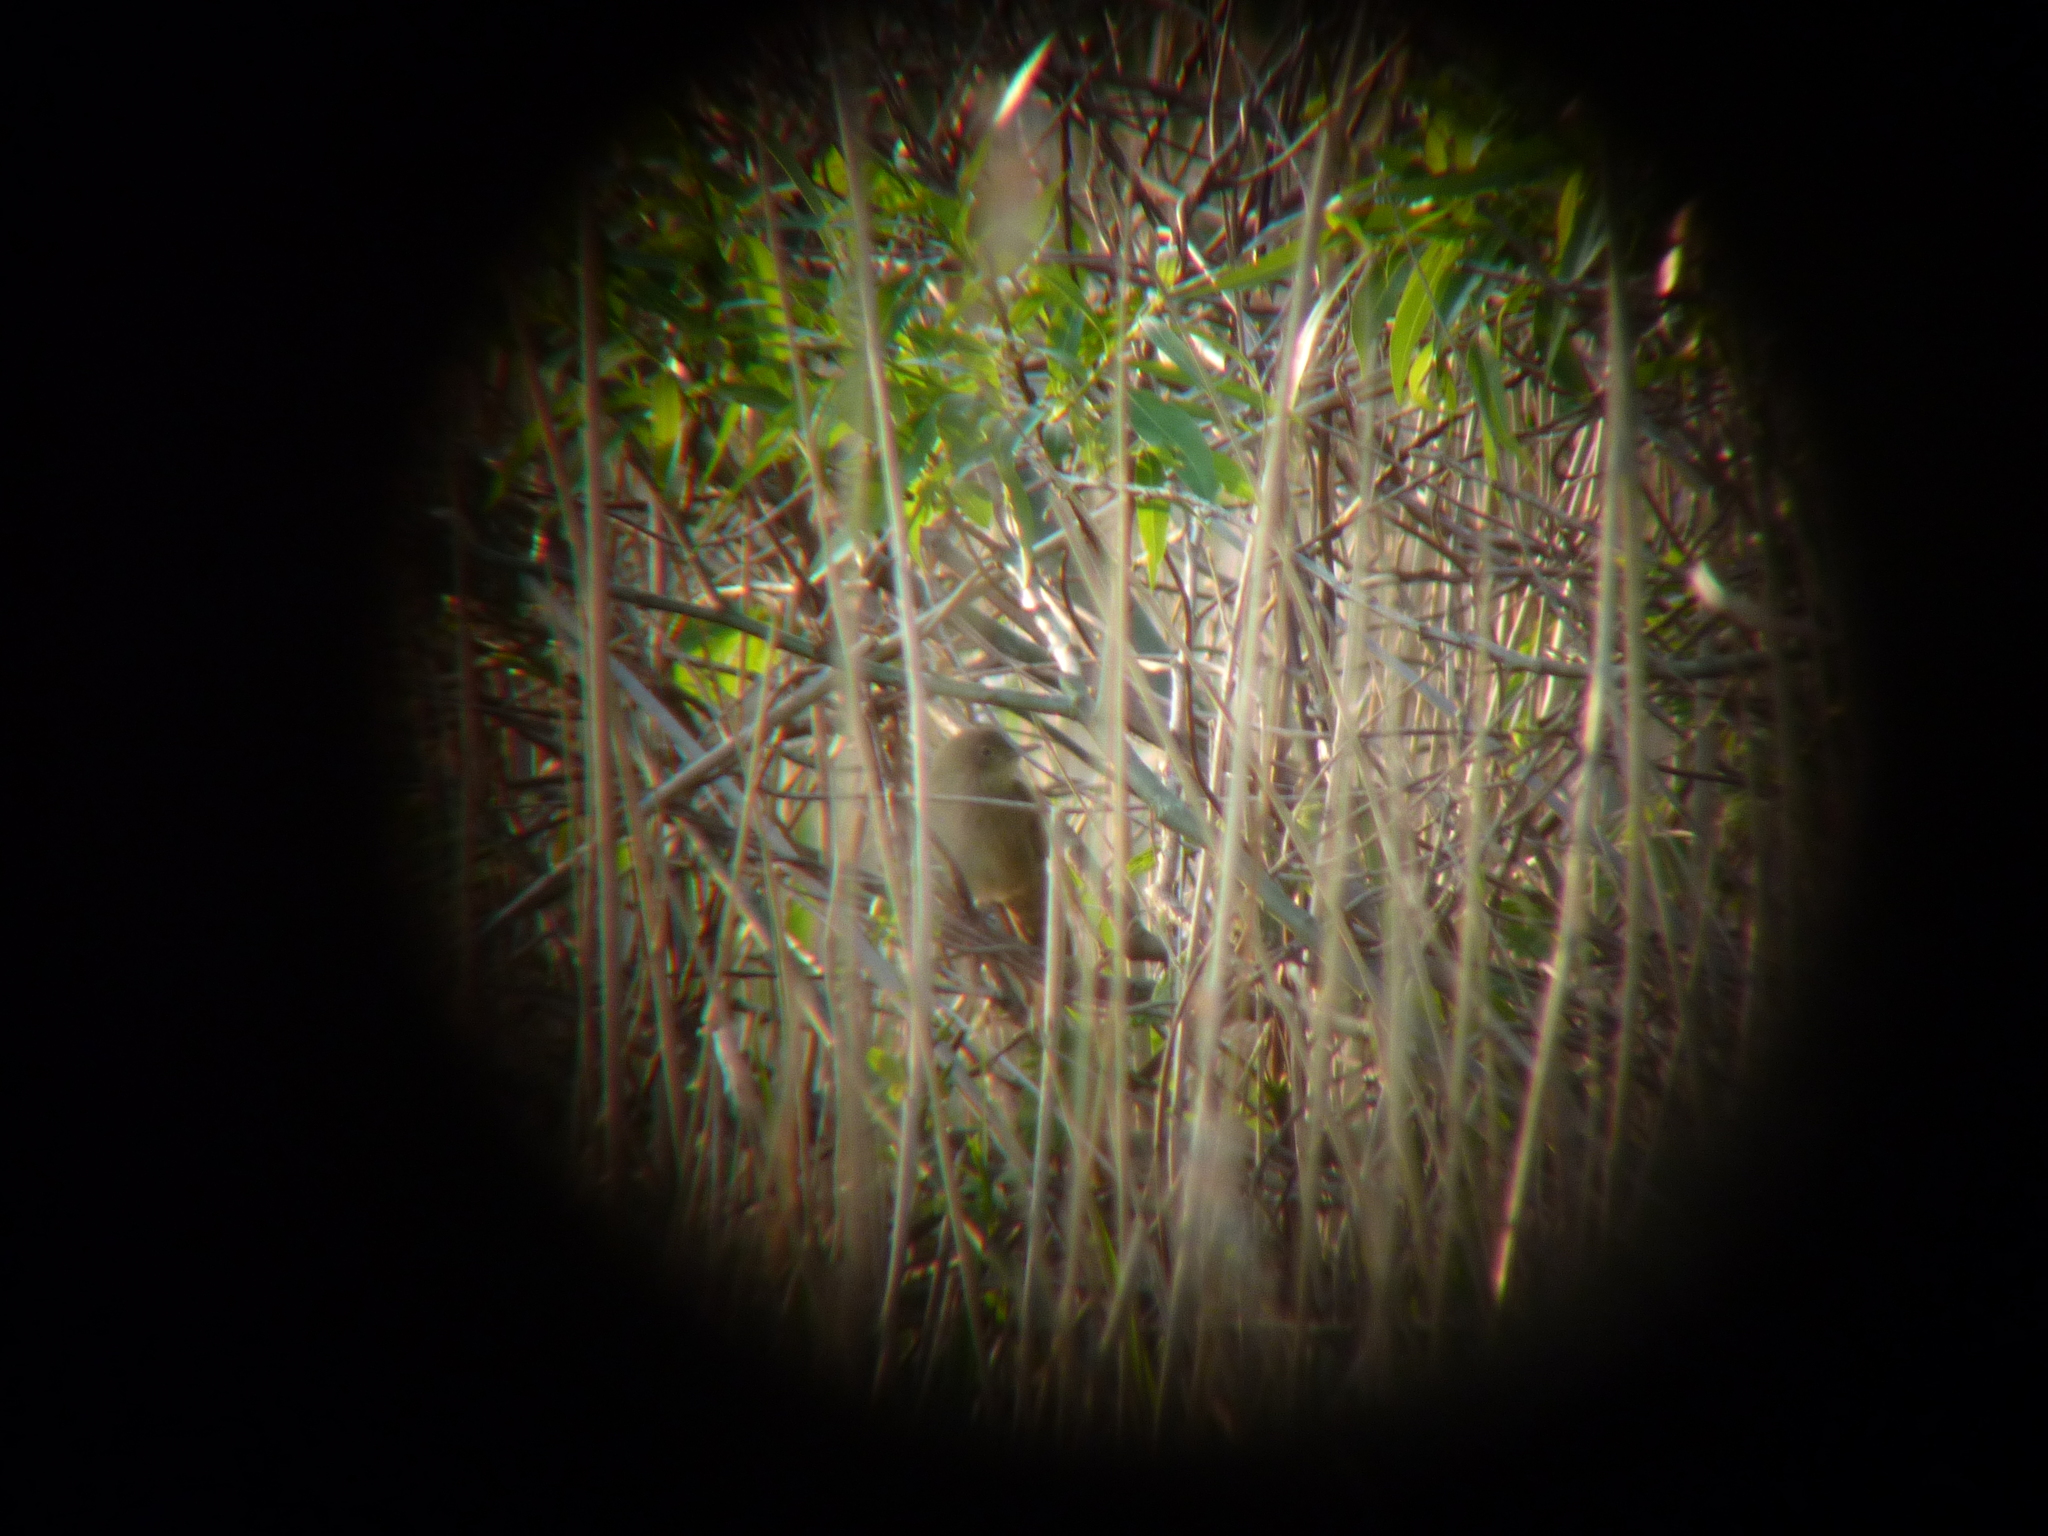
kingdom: Animalia
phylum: Chordata
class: Aves
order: Passeriformes
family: Locustellidae
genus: Locustella
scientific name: Locustella fluviatilis
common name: River warbler
